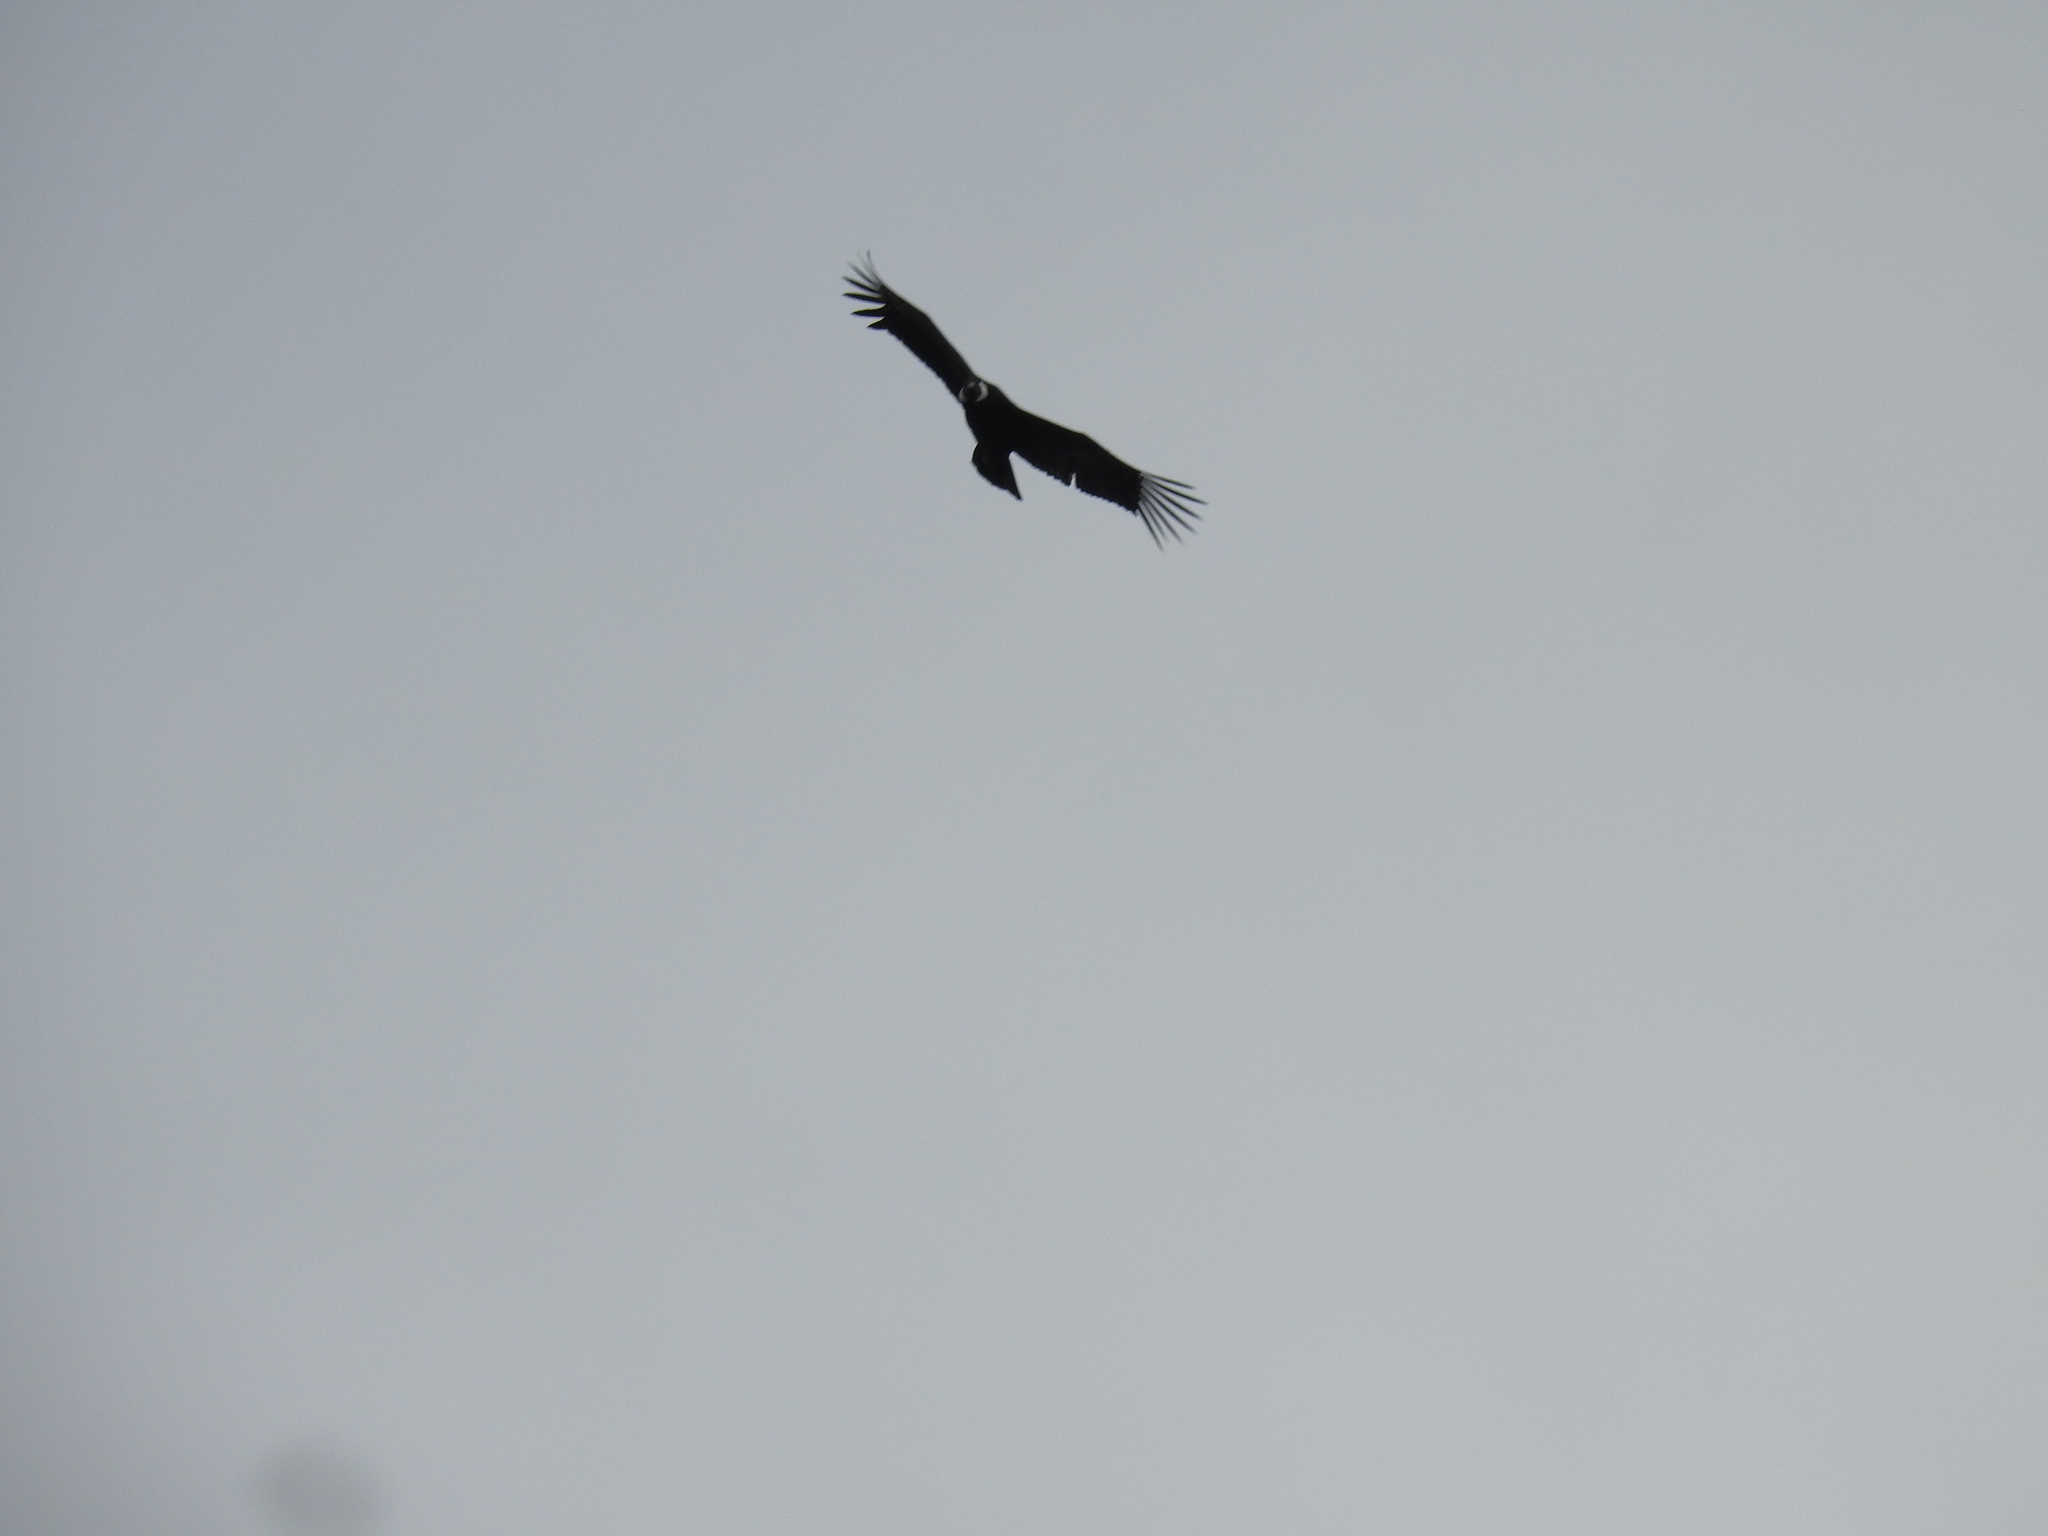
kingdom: Animalia
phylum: Chordata
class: Aves
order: Accipitriformes
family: Cathartidae
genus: Vultur
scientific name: Vultur gryphus
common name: Andean condor
